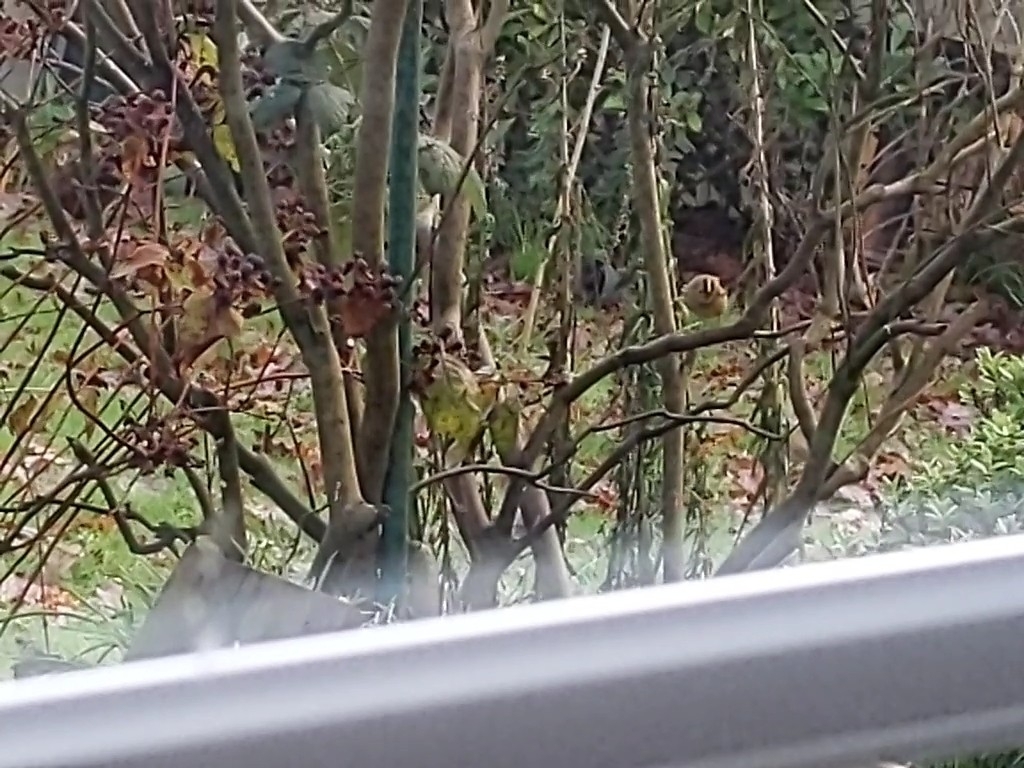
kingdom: Animalia
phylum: Chordata
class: Aves
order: Passeriformes
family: Regulidae
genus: Regulus
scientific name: Regulus regulus
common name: Goldcrest
